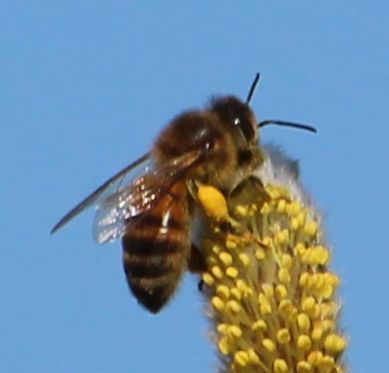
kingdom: Animalia
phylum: Arthropoda
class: Insecta
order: Hymenoptera
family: Apidae
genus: Apis
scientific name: Apis mellifera
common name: Honey bee
